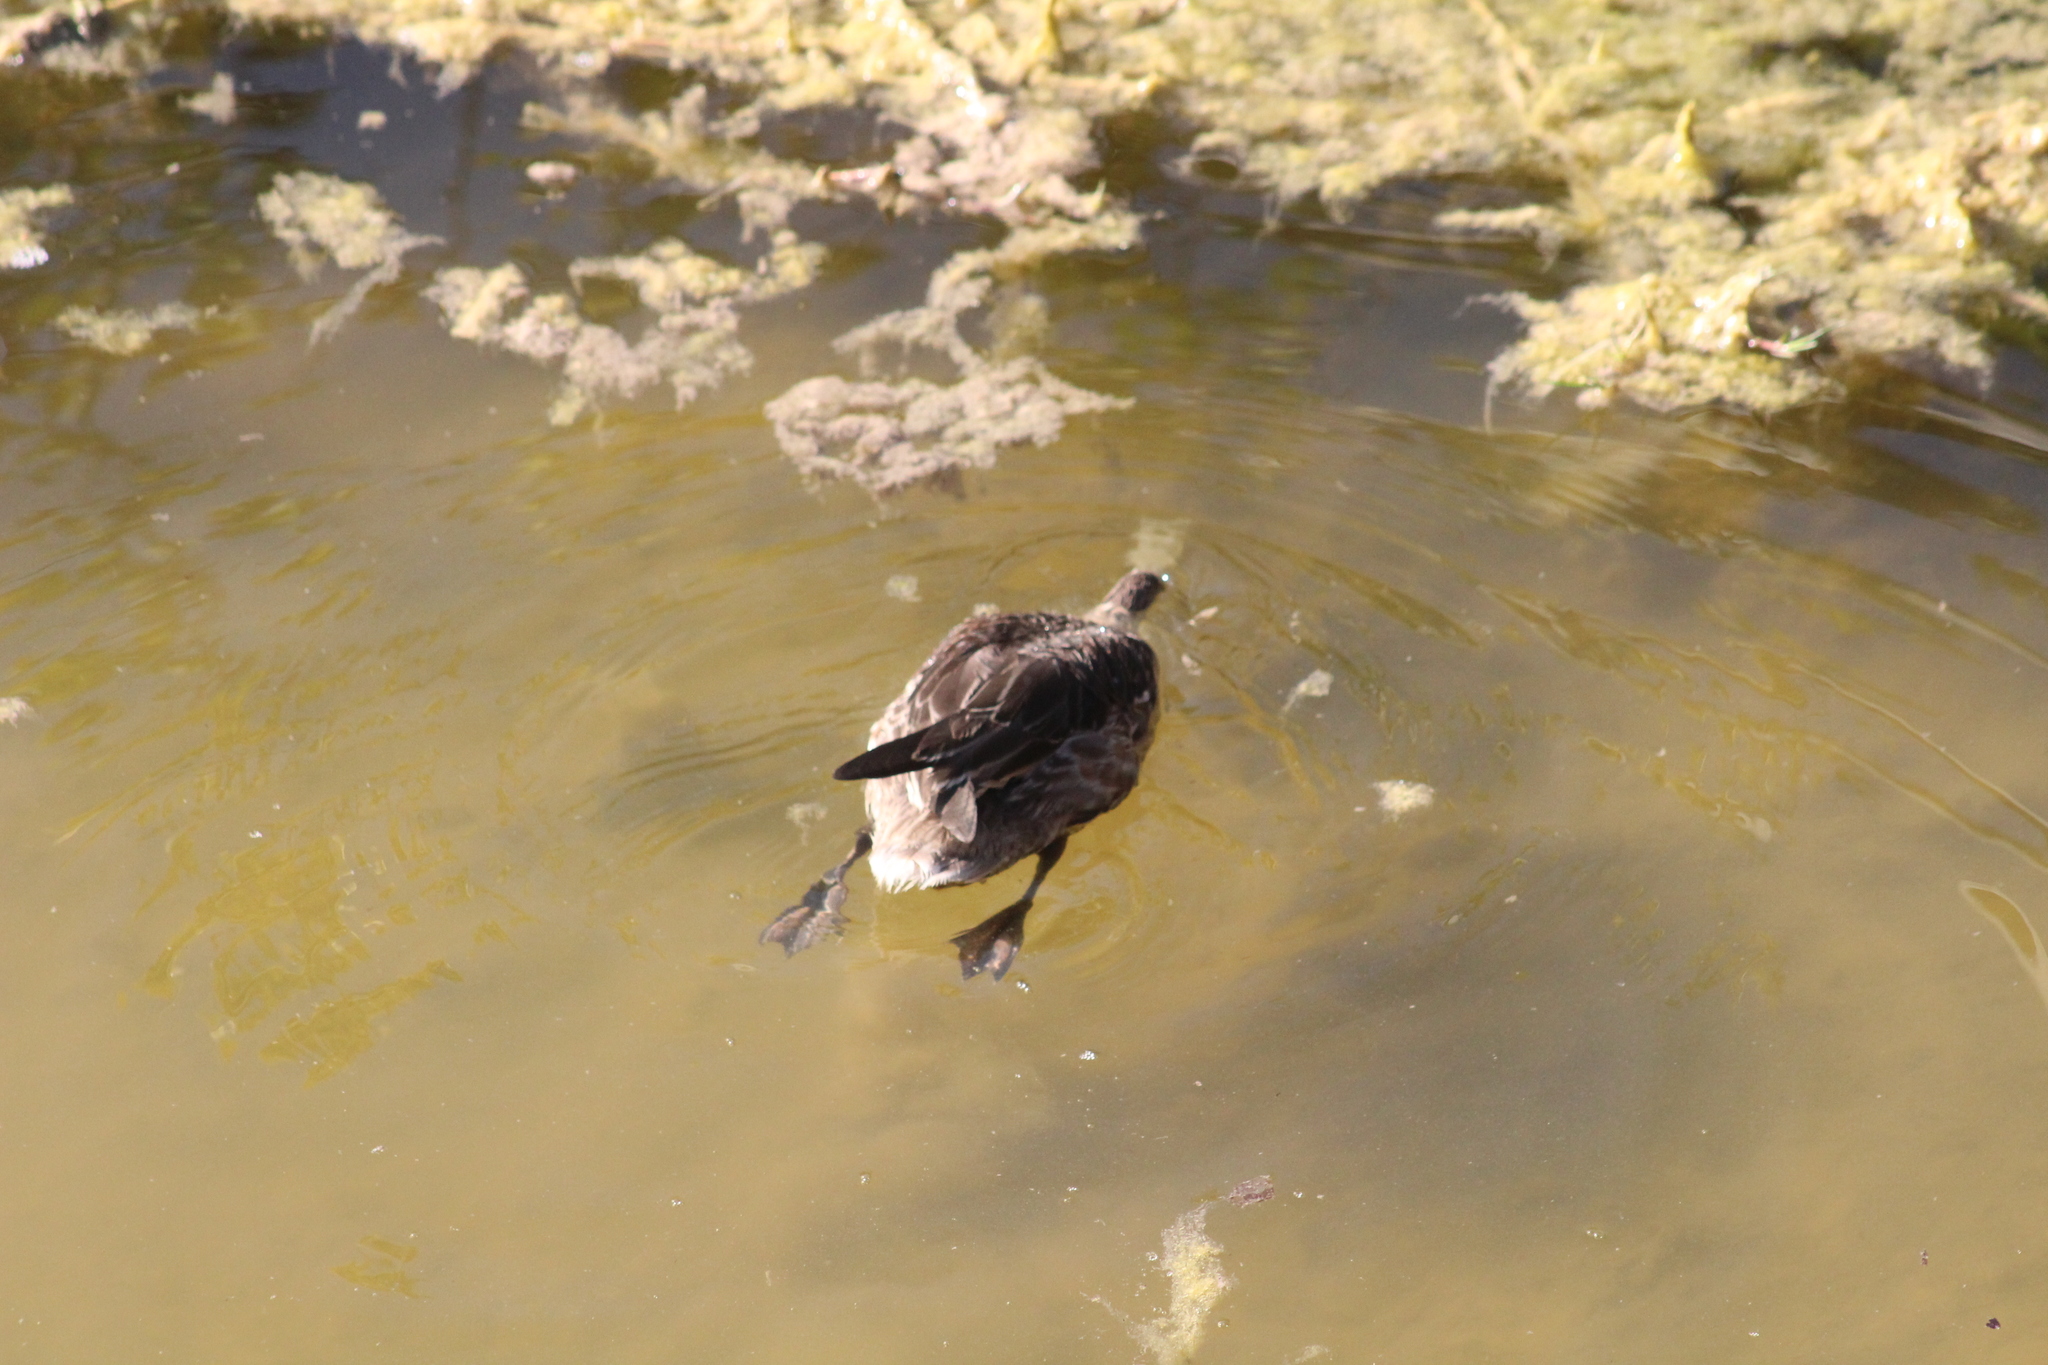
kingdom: Animalia
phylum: Chordata
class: Aves
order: Anseriformes
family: Anatidae
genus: Anas
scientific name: Anas bahamensis
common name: White-cheeked pintail
